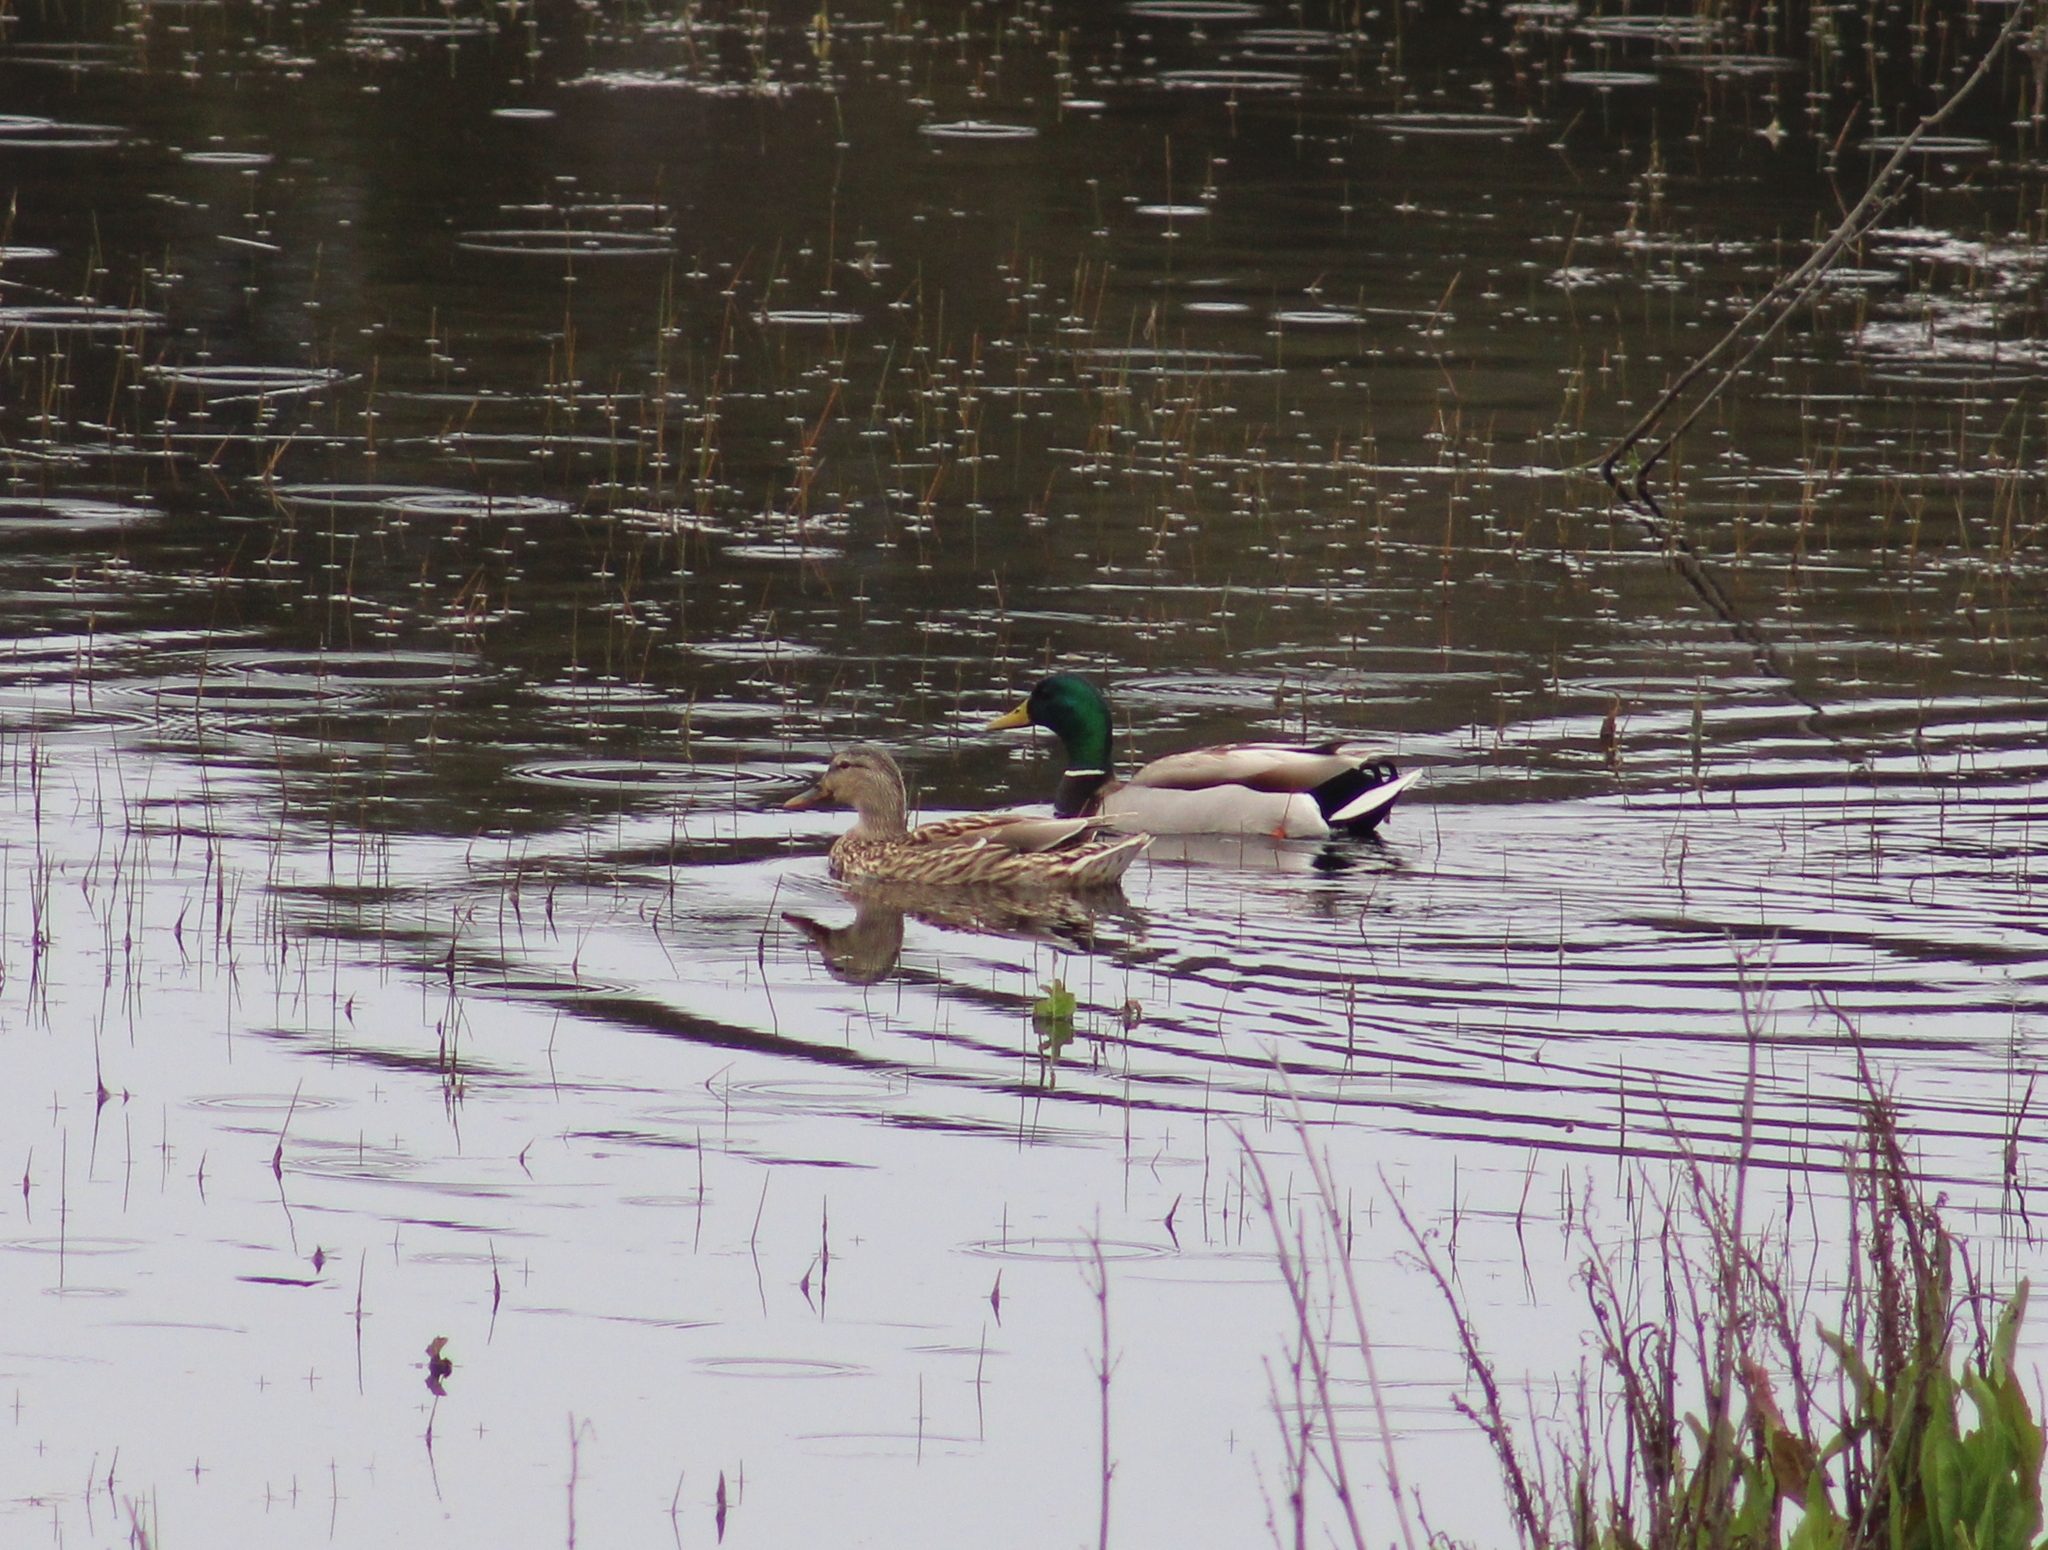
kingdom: Animalia
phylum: Chordata
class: Aves
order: Anseriformes
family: Anatidae
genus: Anas
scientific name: Anas platyrhynchos
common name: Mallard
